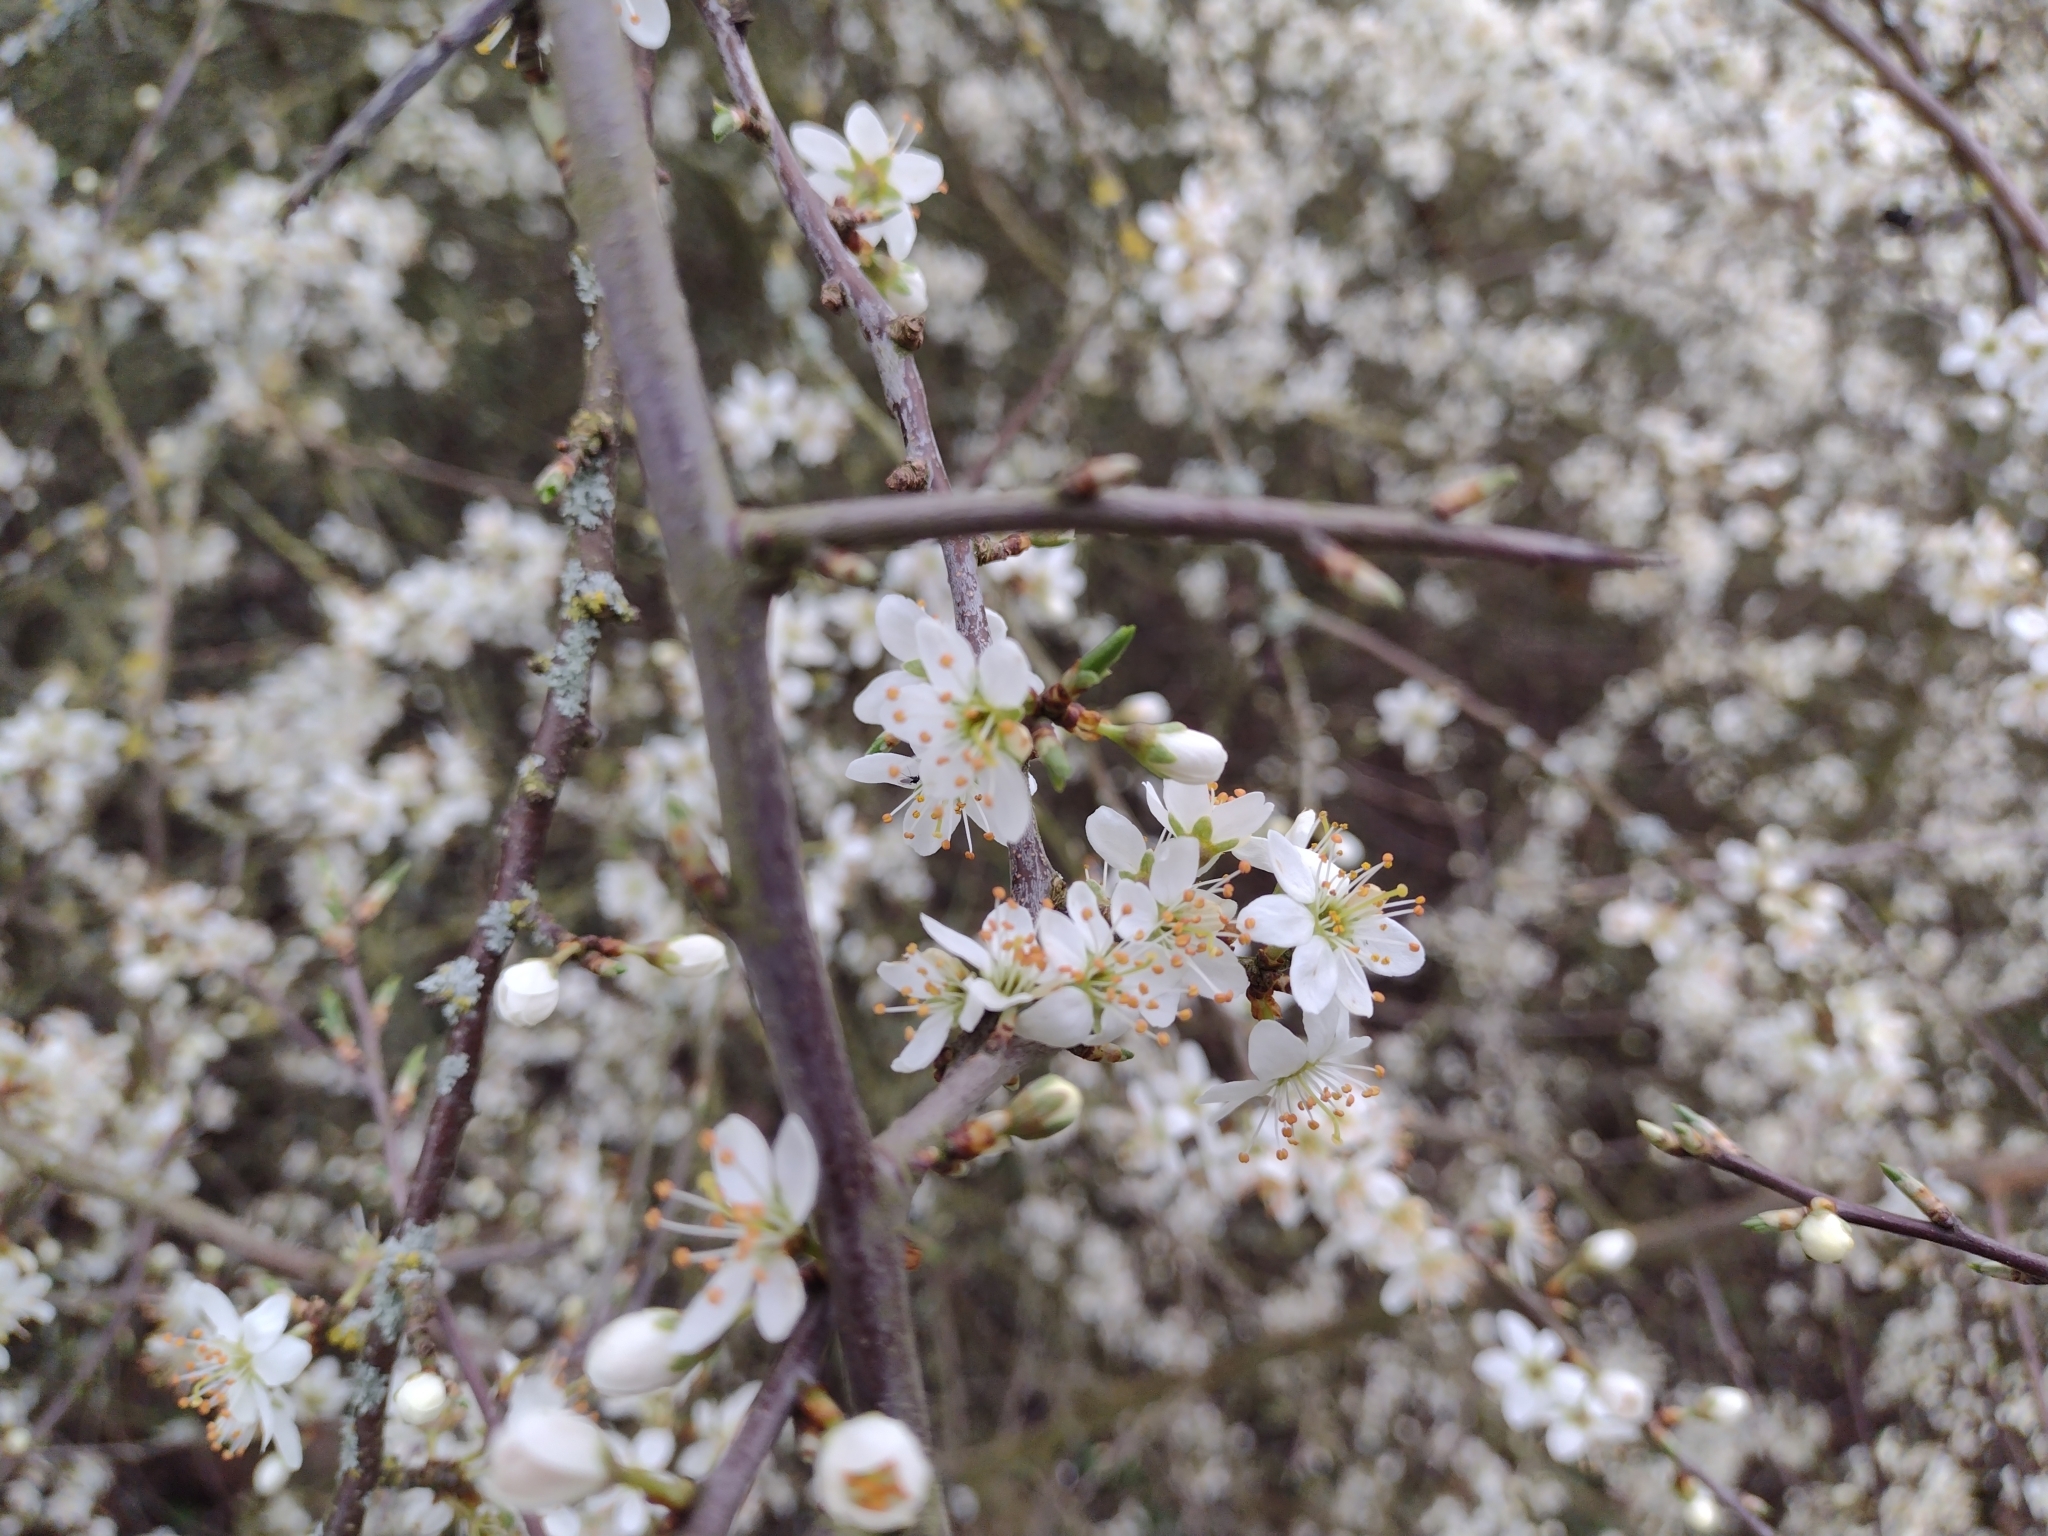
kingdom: Plantae
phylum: Tracheophyta
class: Magnoliopsida
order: Rosales
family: Rosaceae
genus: Prunus
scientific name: Prunus spinosa
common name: Blackthorn
